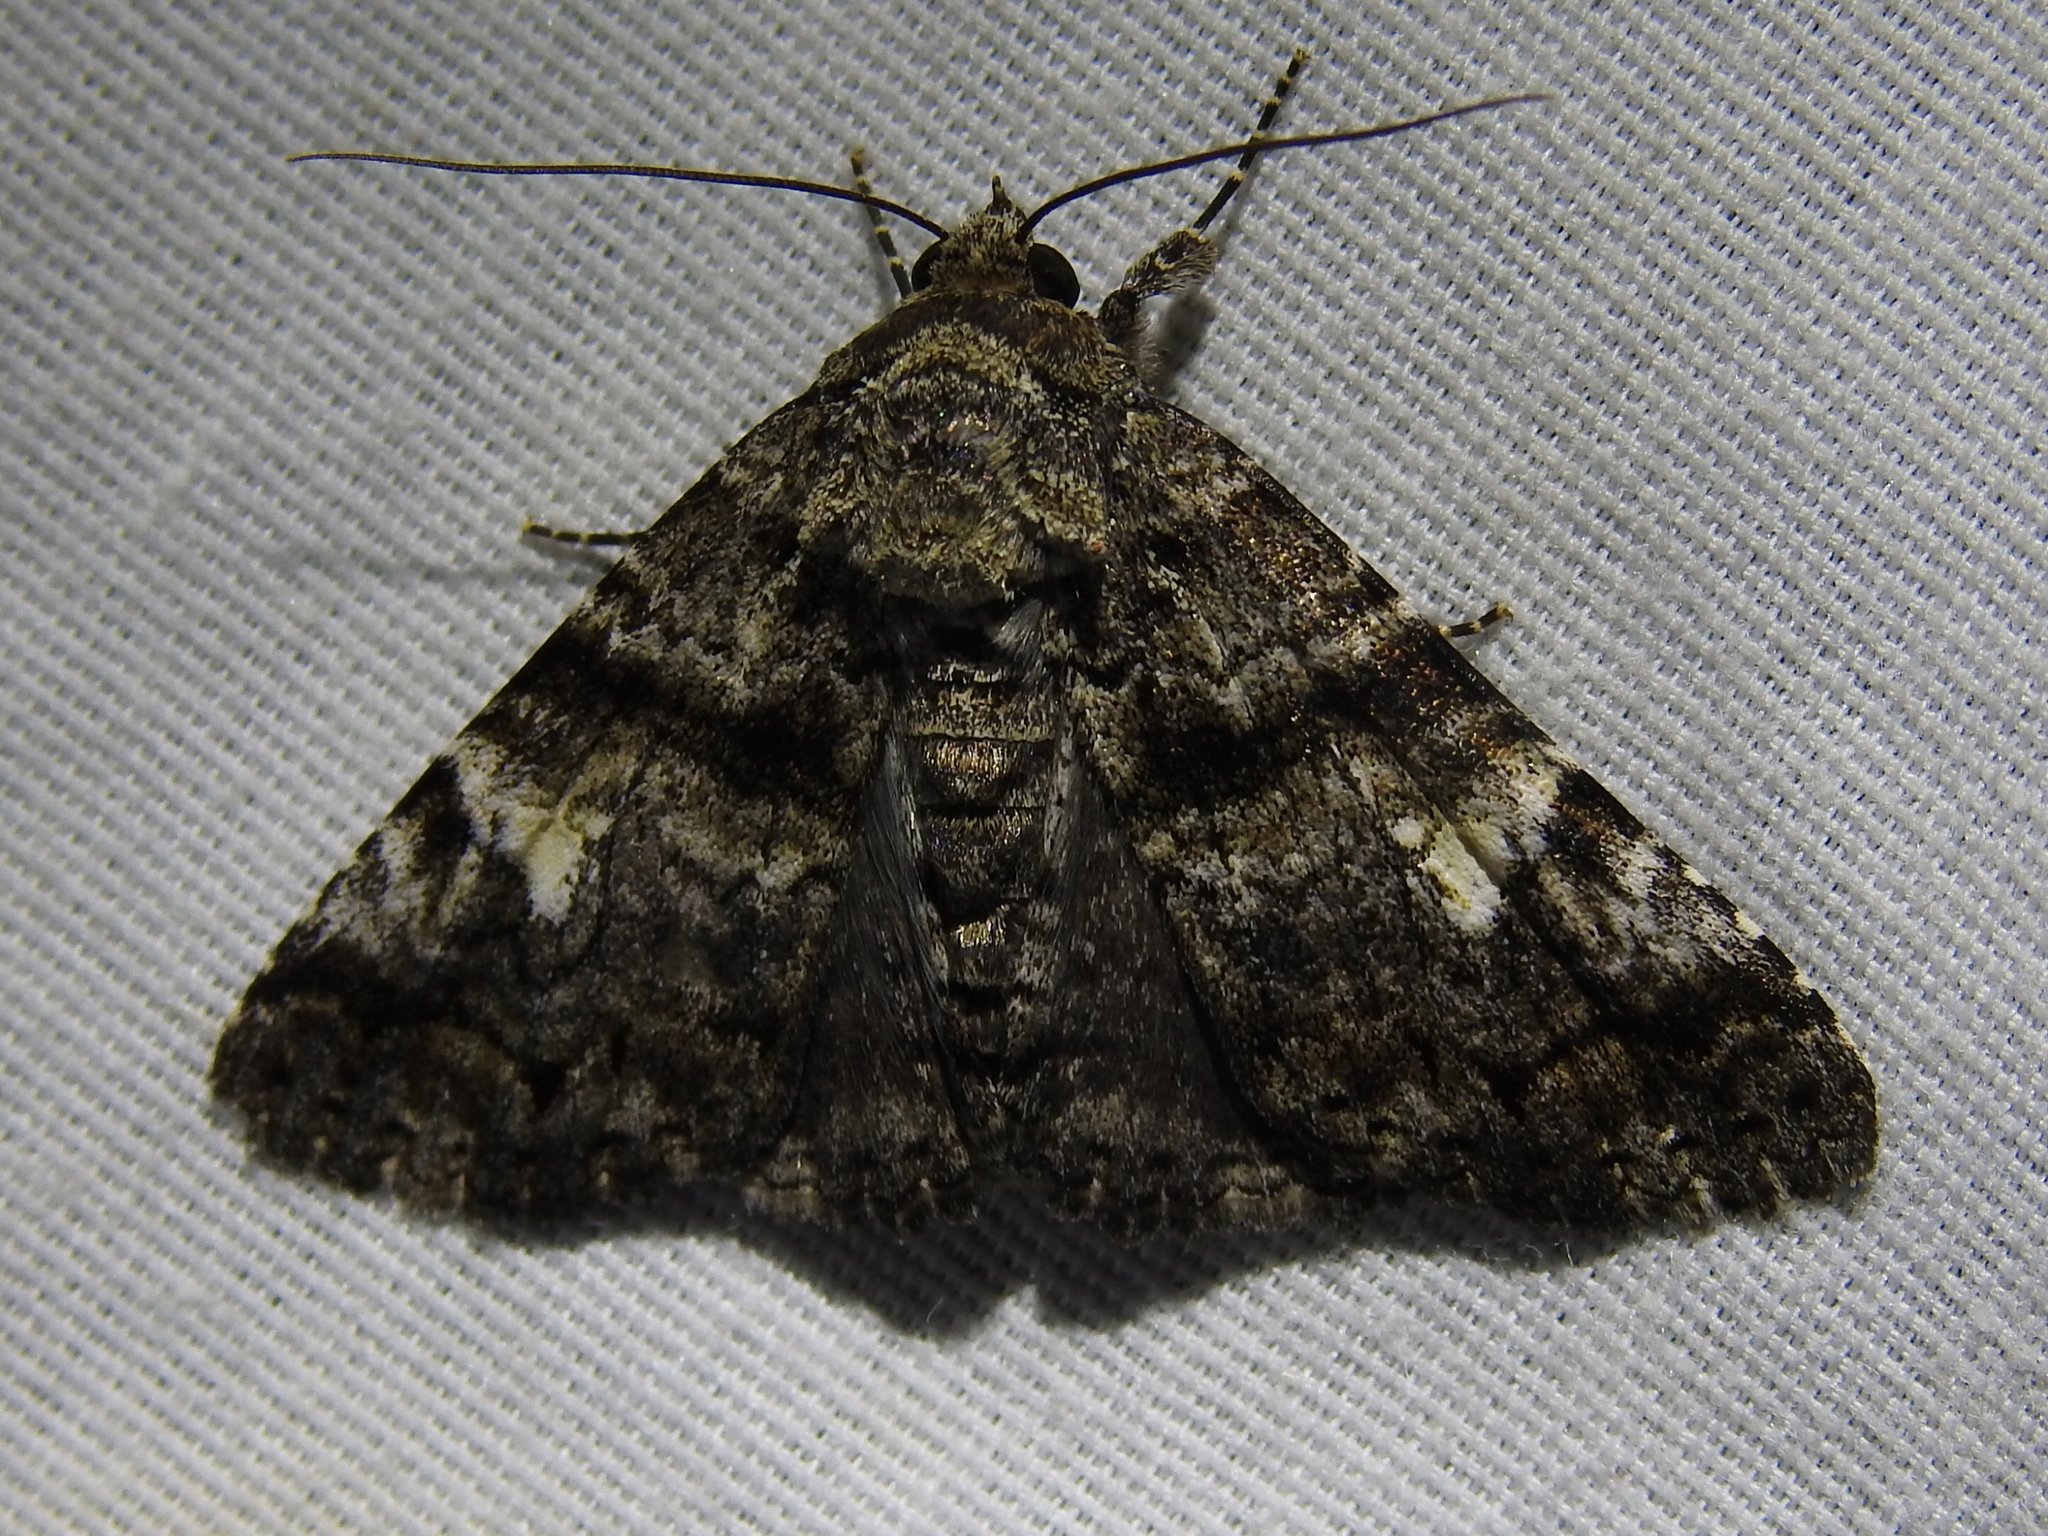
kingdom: Animalia
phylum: Arthropoda
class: Insecta
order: Lepidoptera
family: Erebidae
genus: Metria
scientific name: Metria amella
